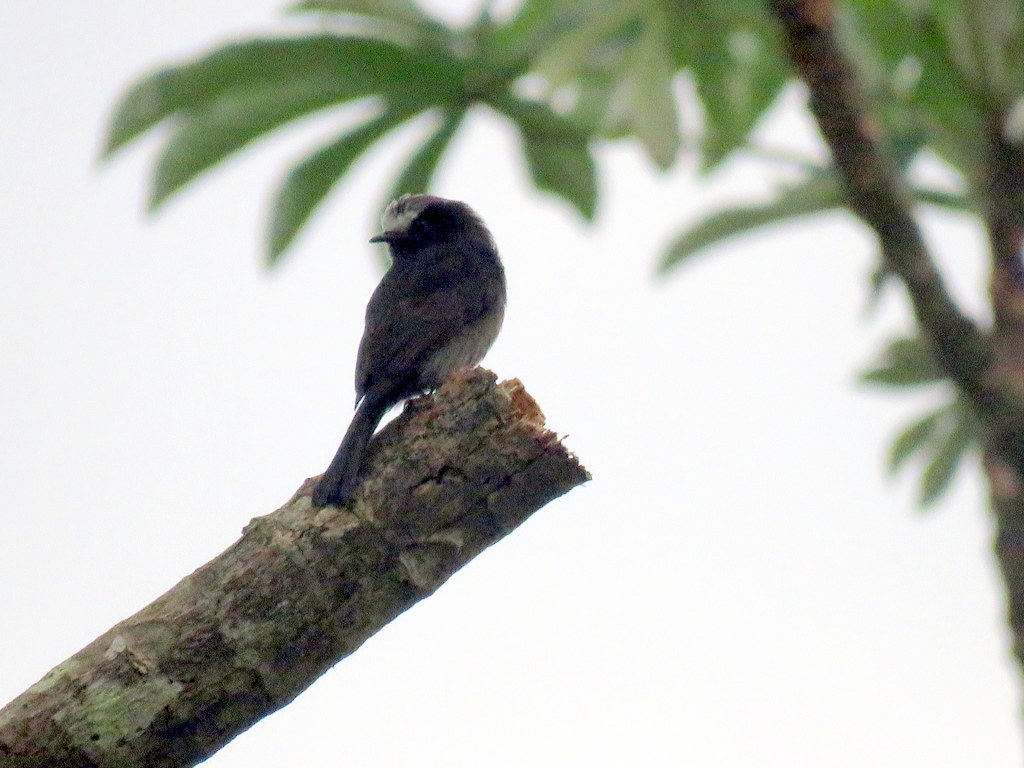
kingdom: Animalia
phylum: Chordata
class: Aves
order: Passeriformes
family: Tyrannidae
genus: Colonia
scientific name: Colonia colonus
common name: Long-tailed tyrant
